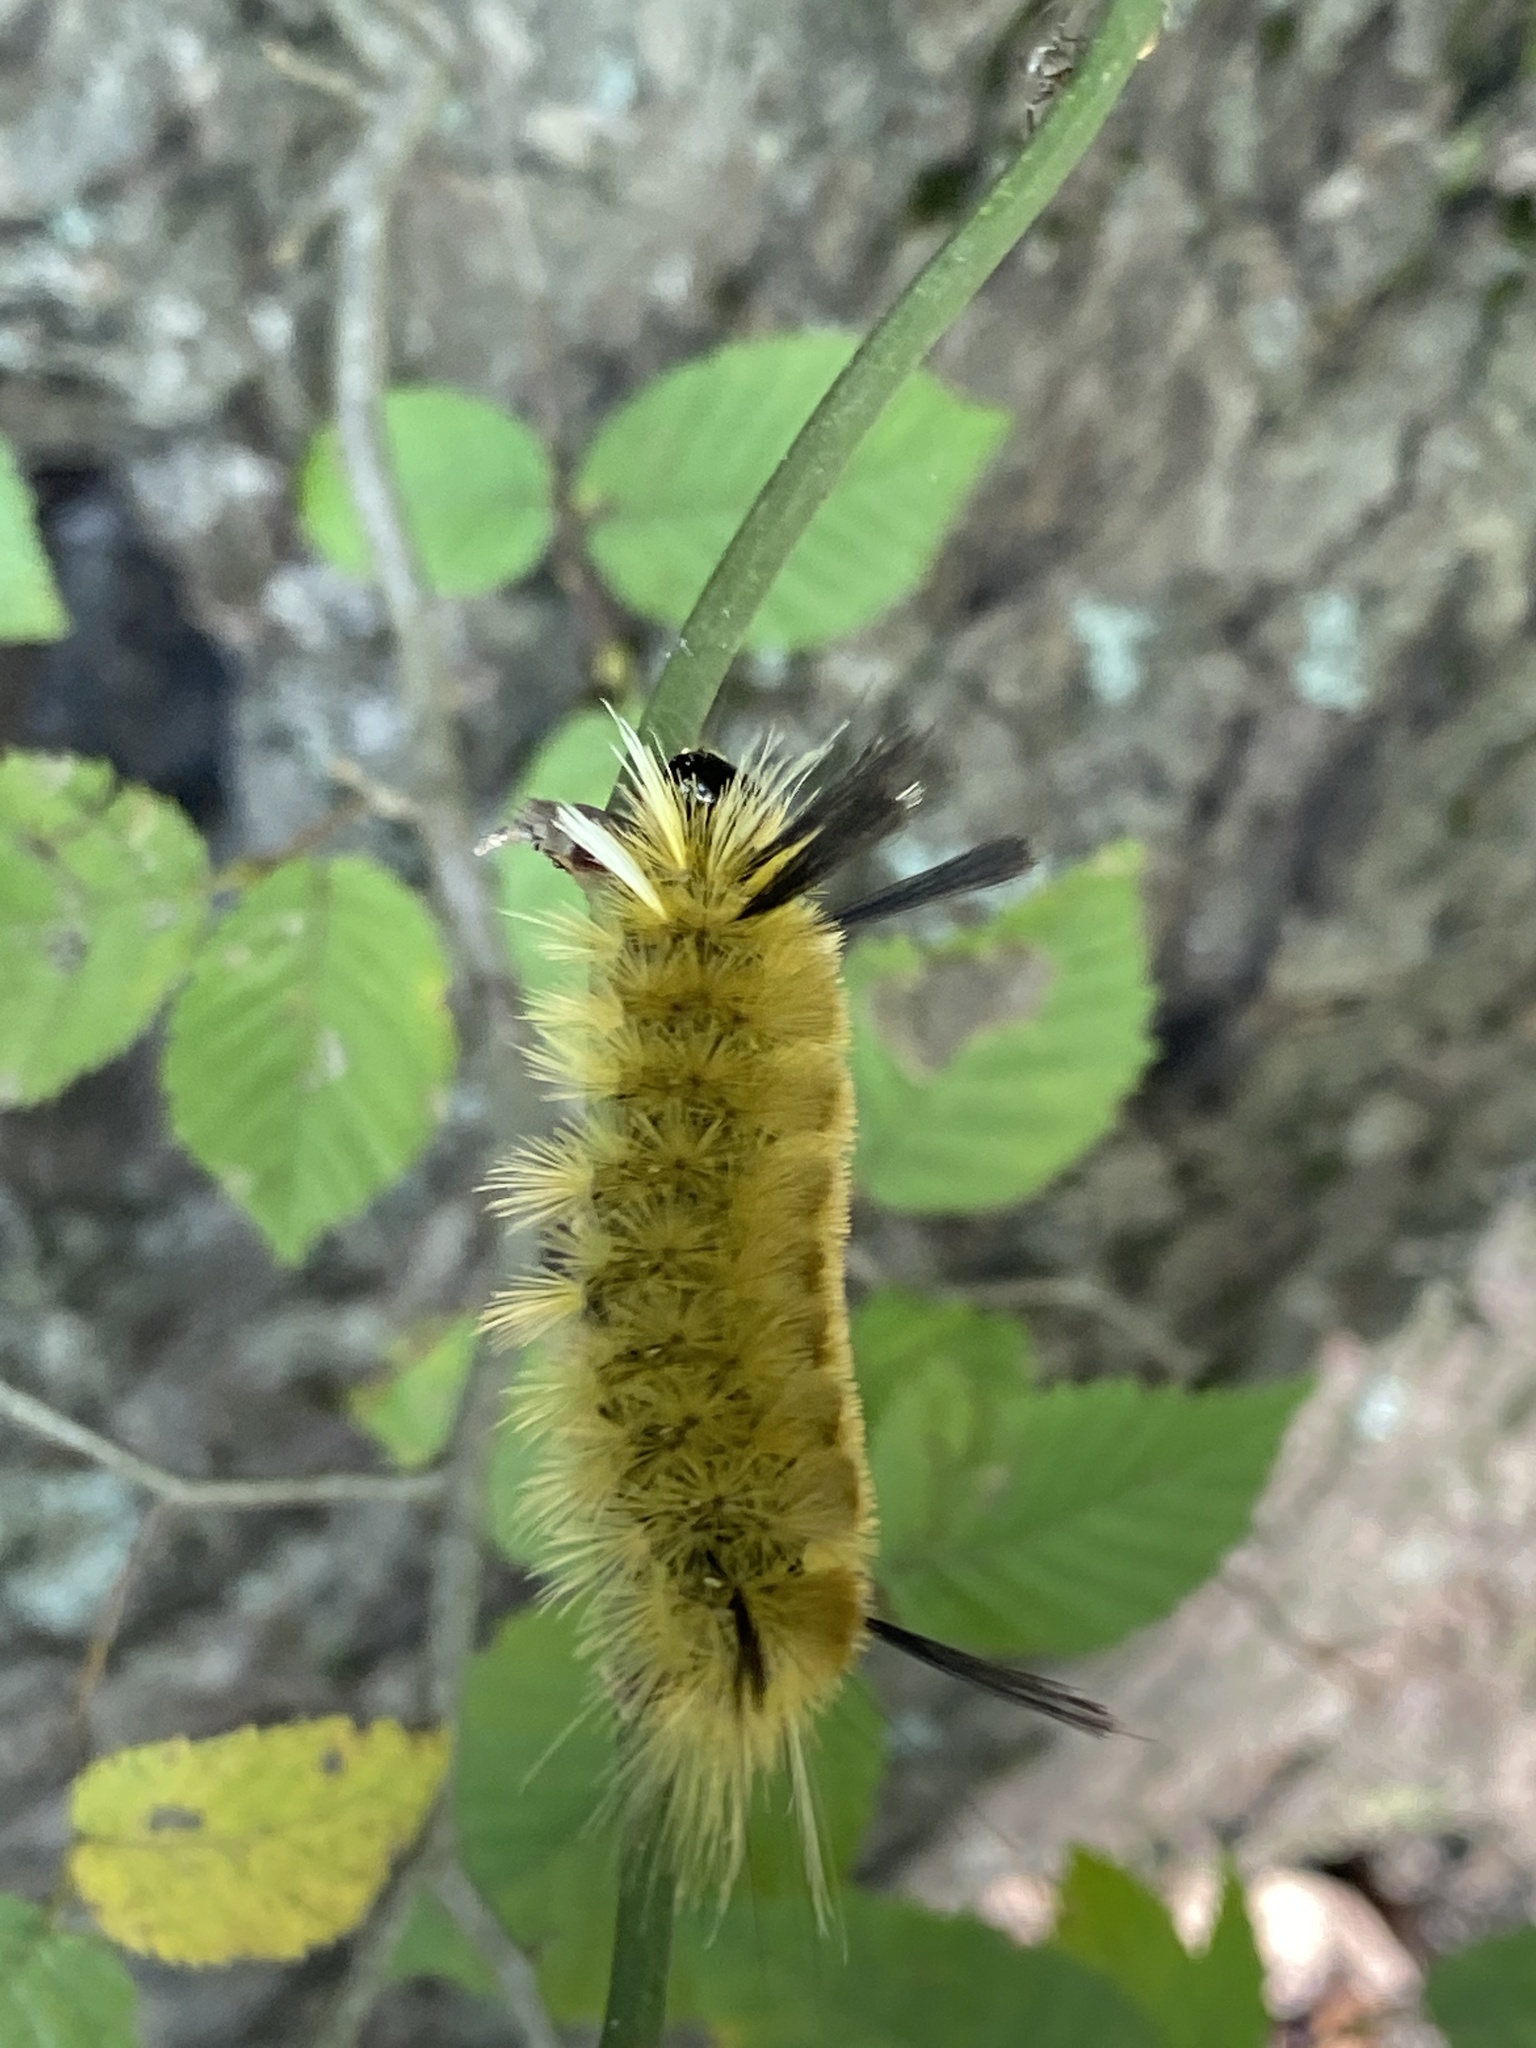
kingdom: Animalia
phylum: Arthropoda
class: Insecta
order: Lepidoptera
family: Erebidae
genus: Halysidota
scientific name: Halysidota tessellaris
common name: Banded tussock moth
